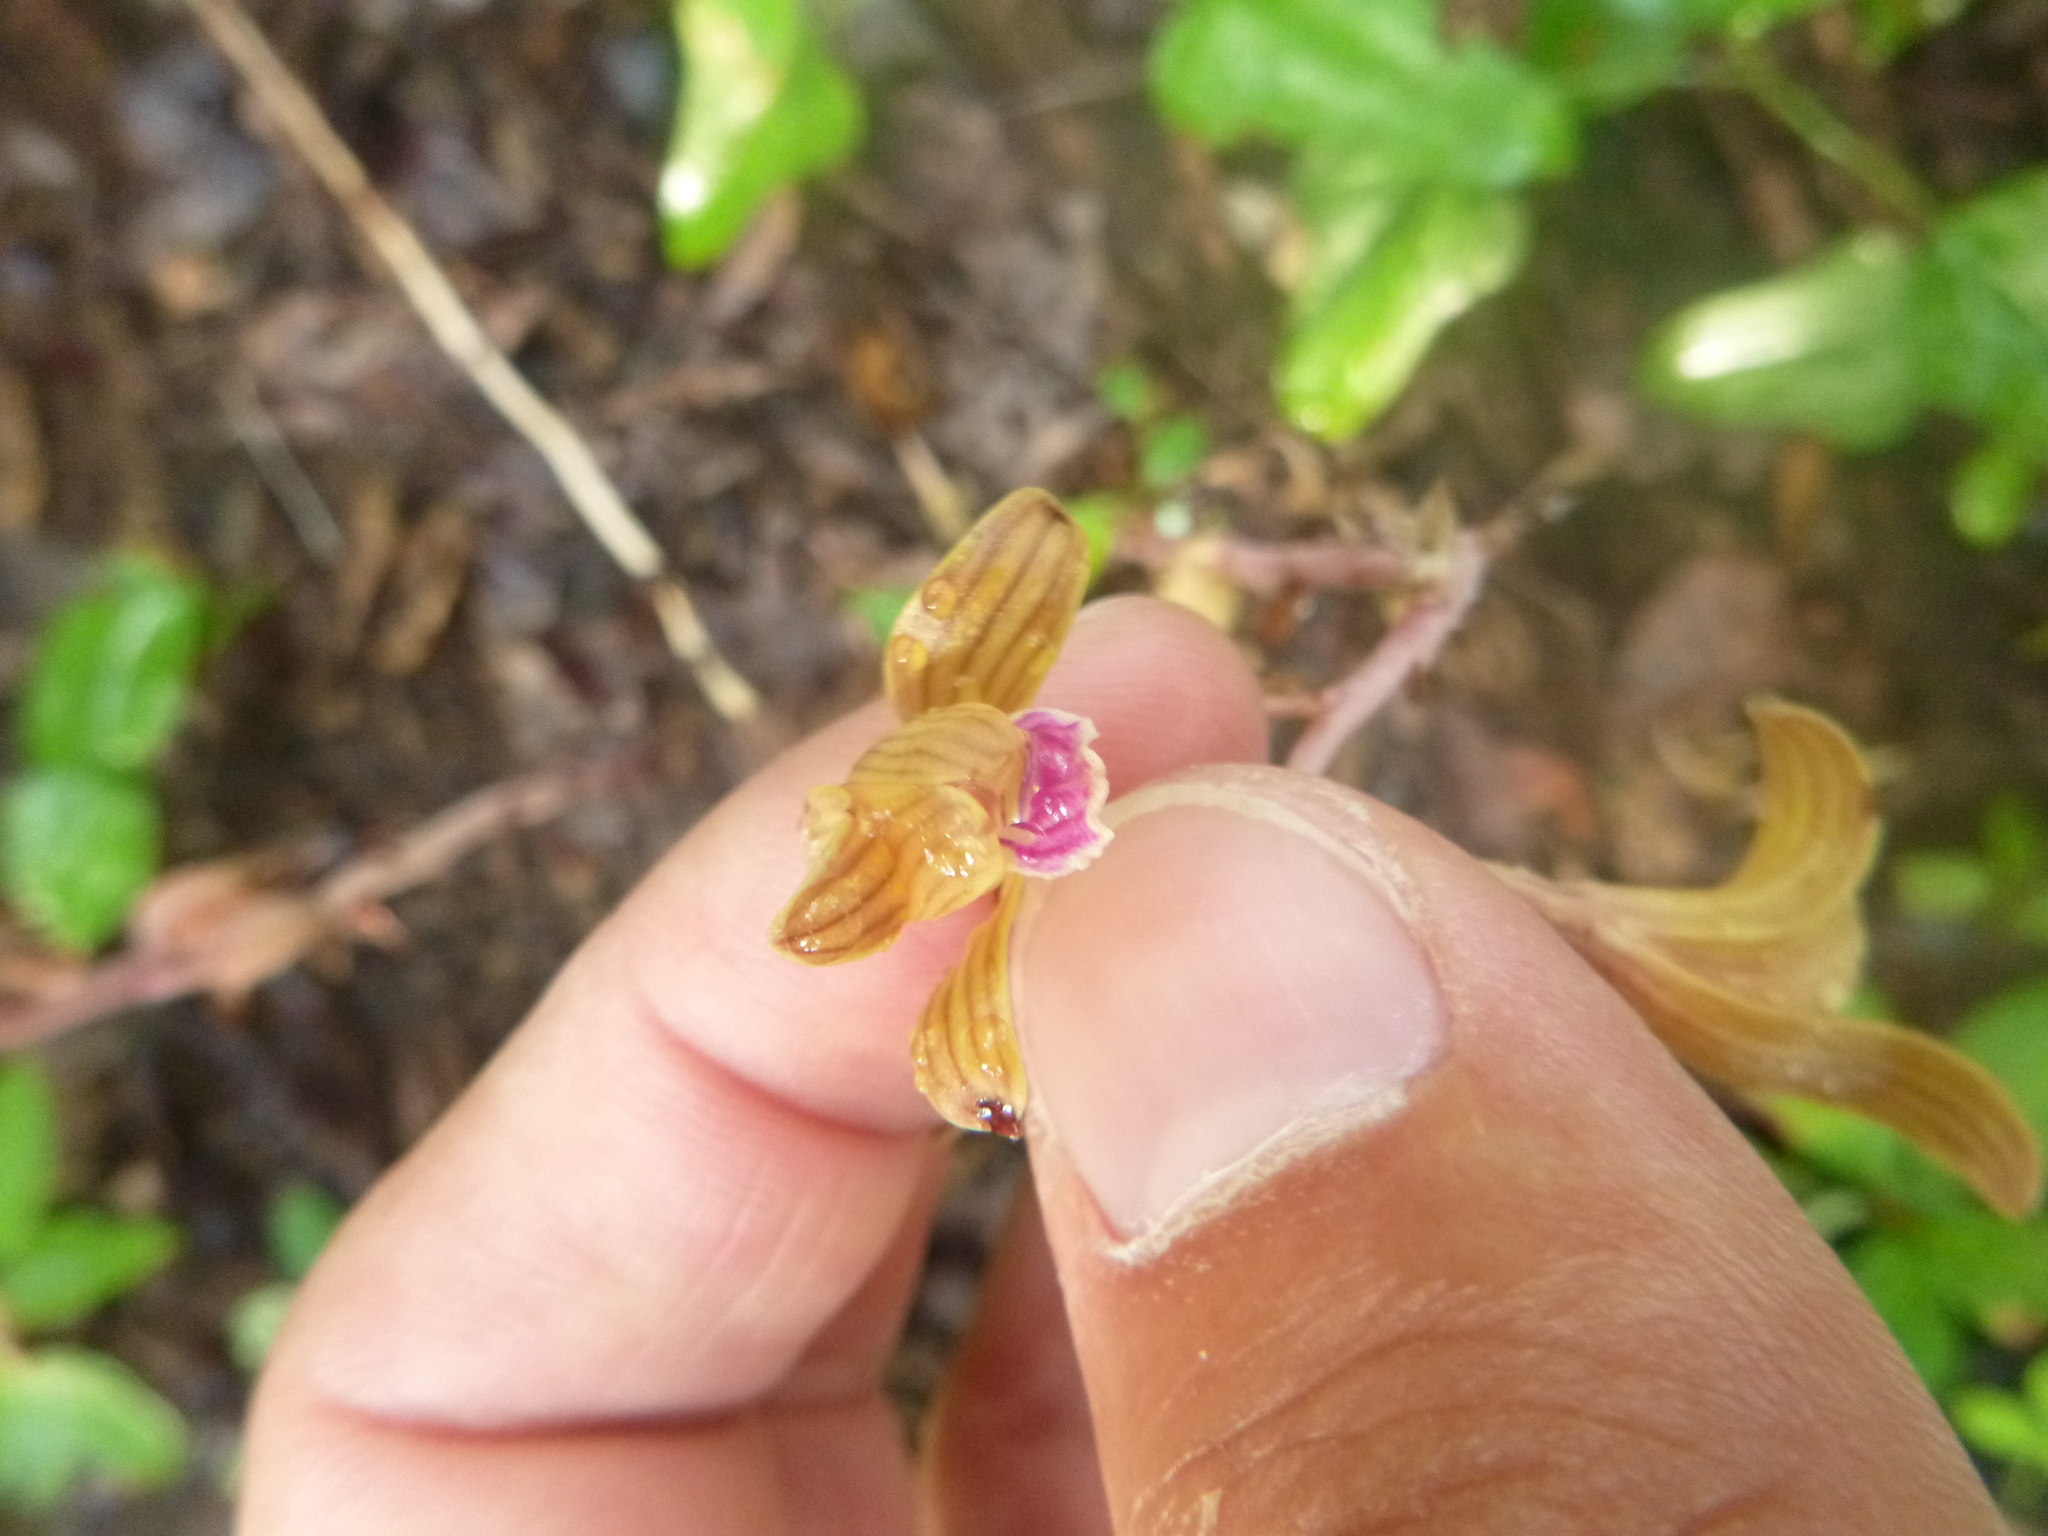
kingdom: Plantae
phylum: Tracheophyta
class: Liliopsida
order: Asparagales
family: Orchidaceae
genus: Bletia
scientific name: Bletia spicata
